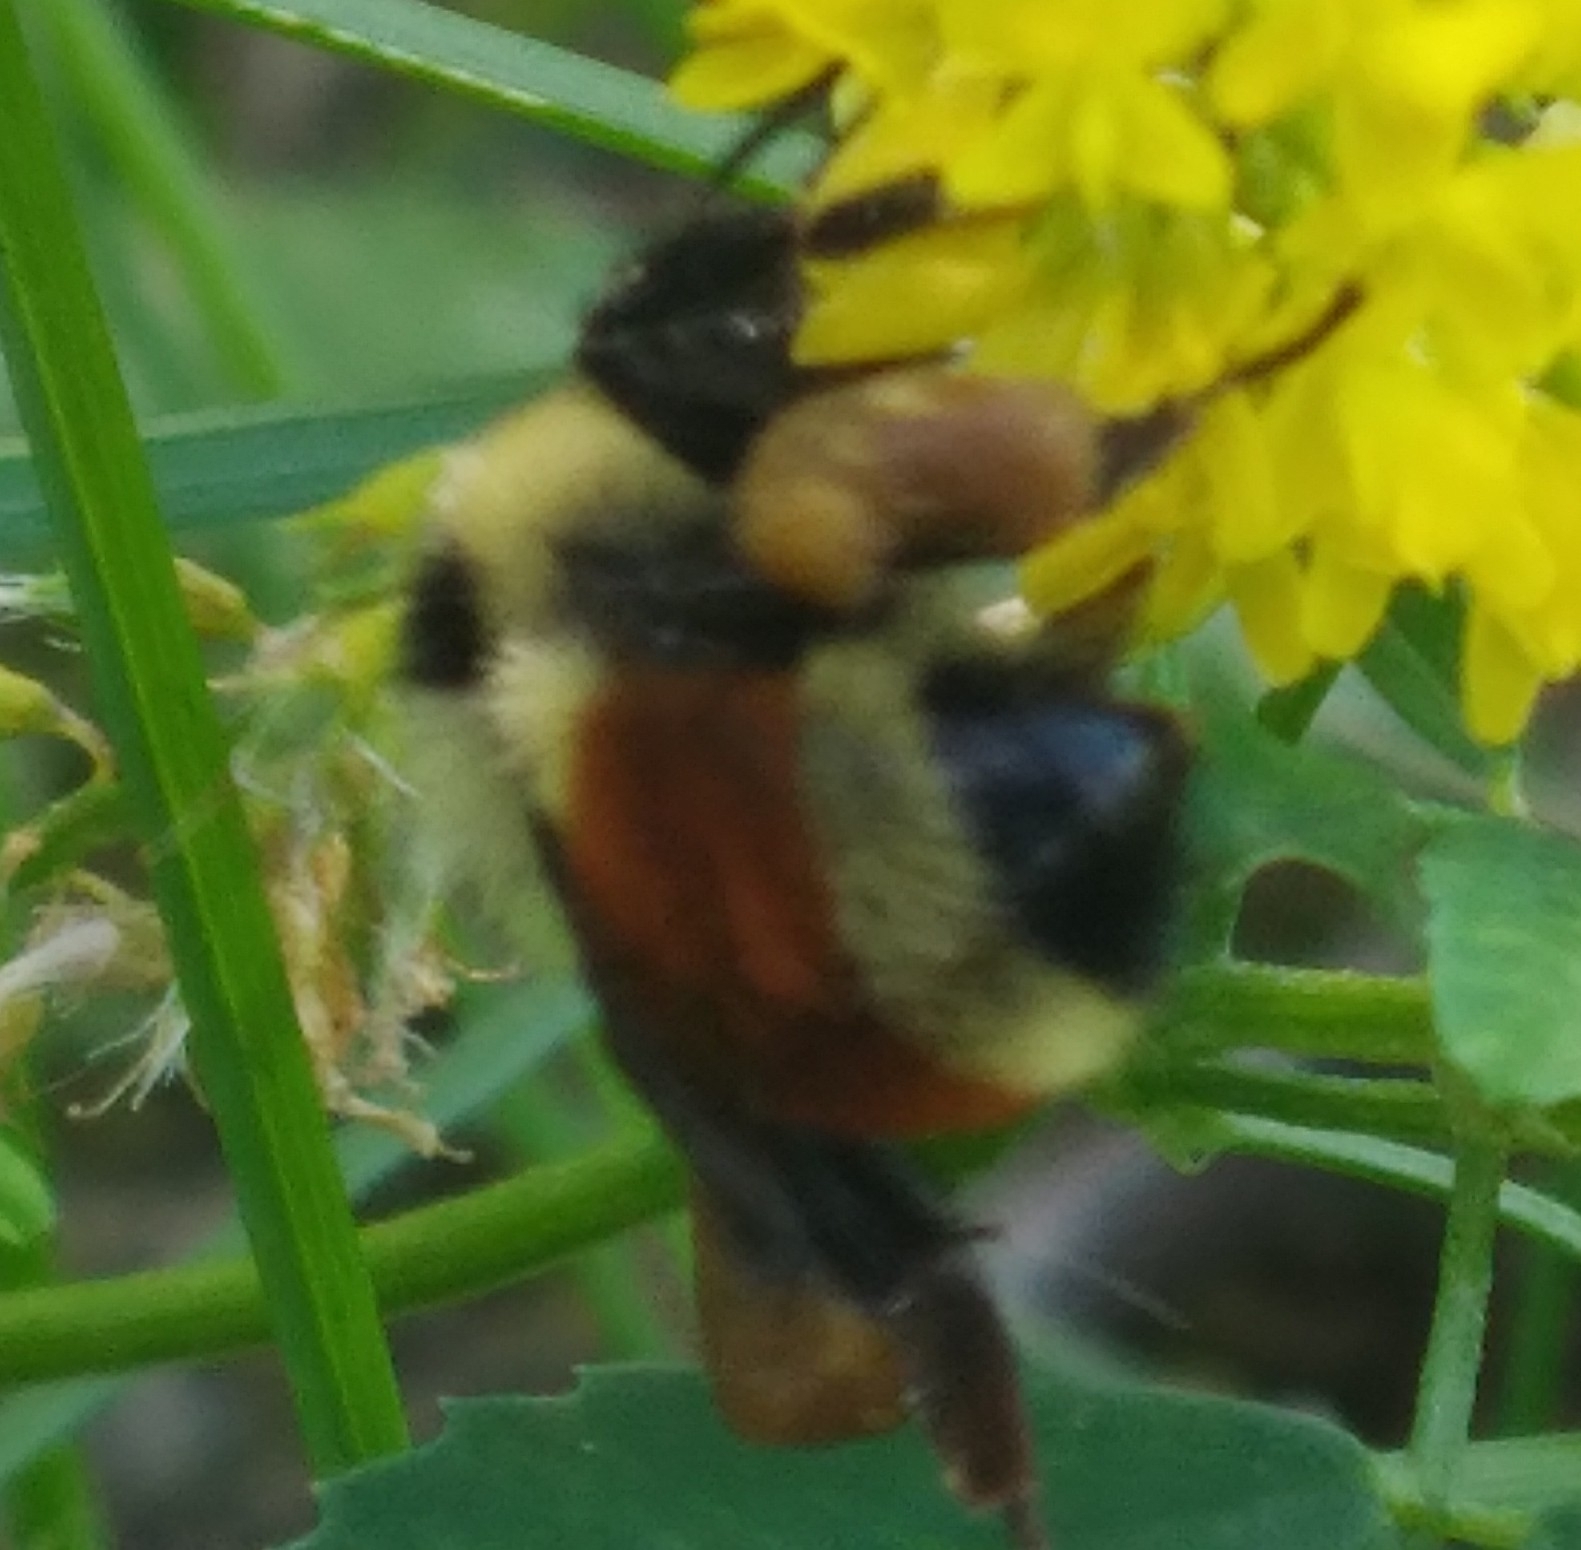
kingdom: Animalia
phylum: Arthropoda
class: Insecta
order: Hymenoptera
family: Apidae
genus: Bombus
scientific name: Bombus ternarius
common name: Tri-colored bumble bee
